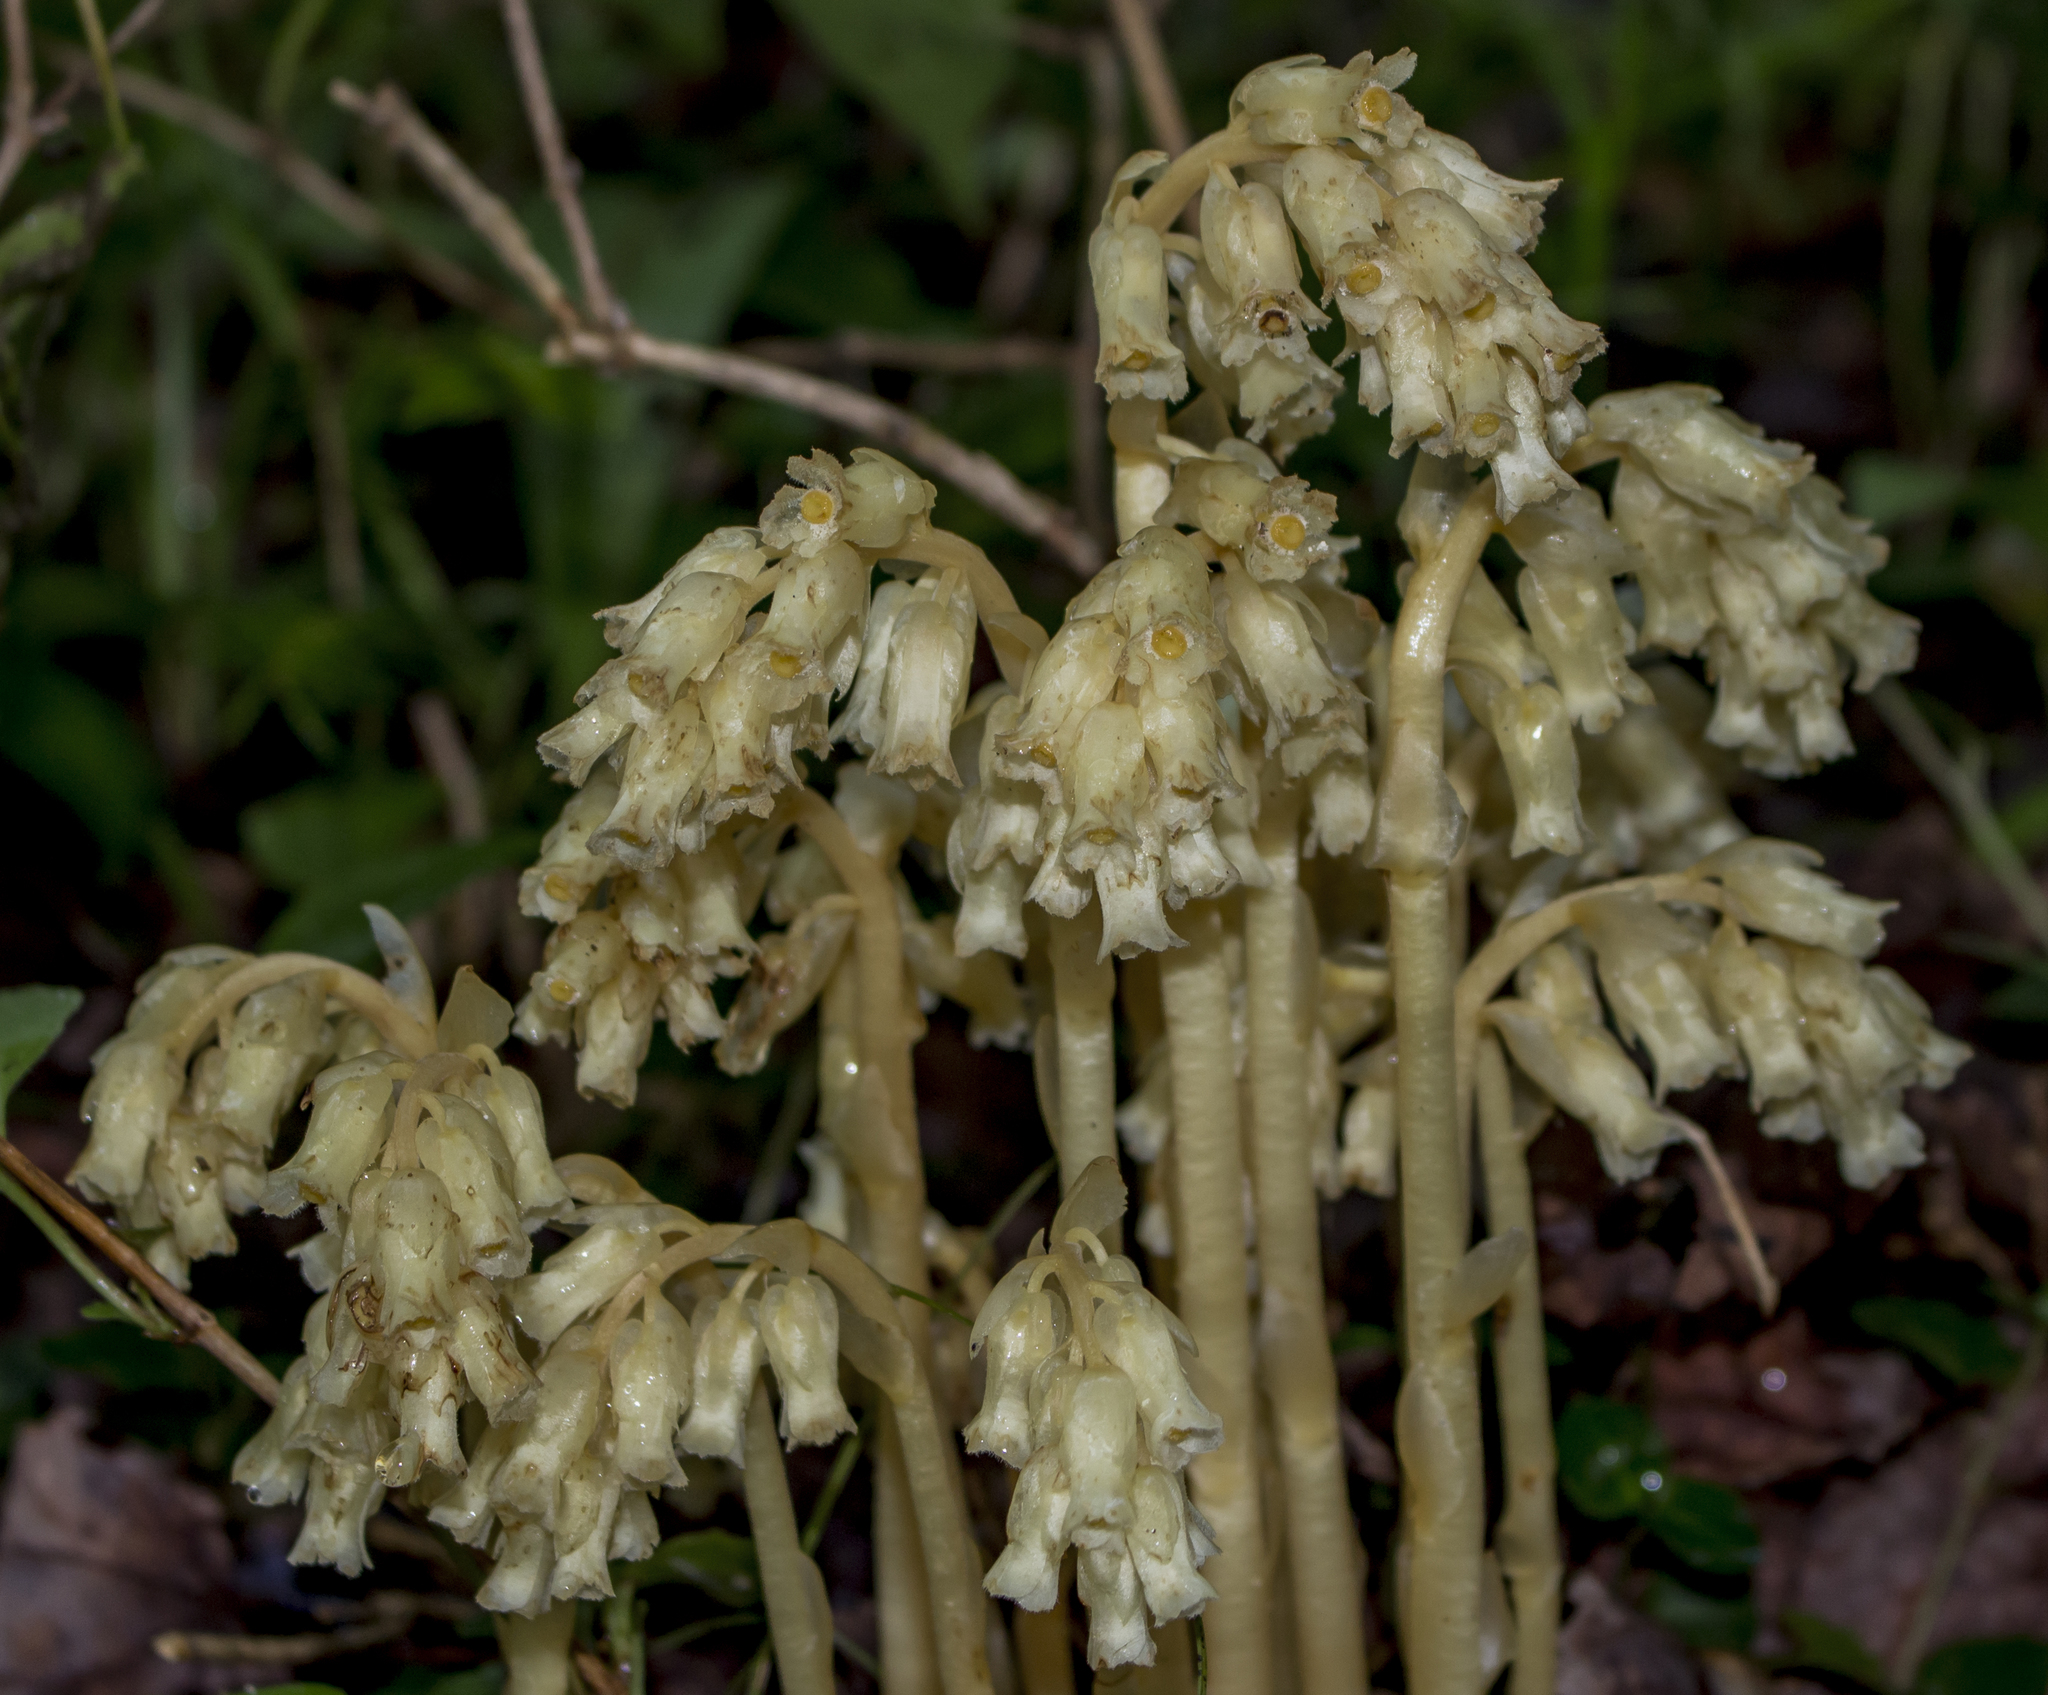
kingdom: Plantae
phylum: Tracheophyta
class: Magnoliopsida
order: Ericales
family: Ericaceae
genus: Hypopitys
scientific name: Hypopitys monotropa
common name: Yellow bird's-nest
